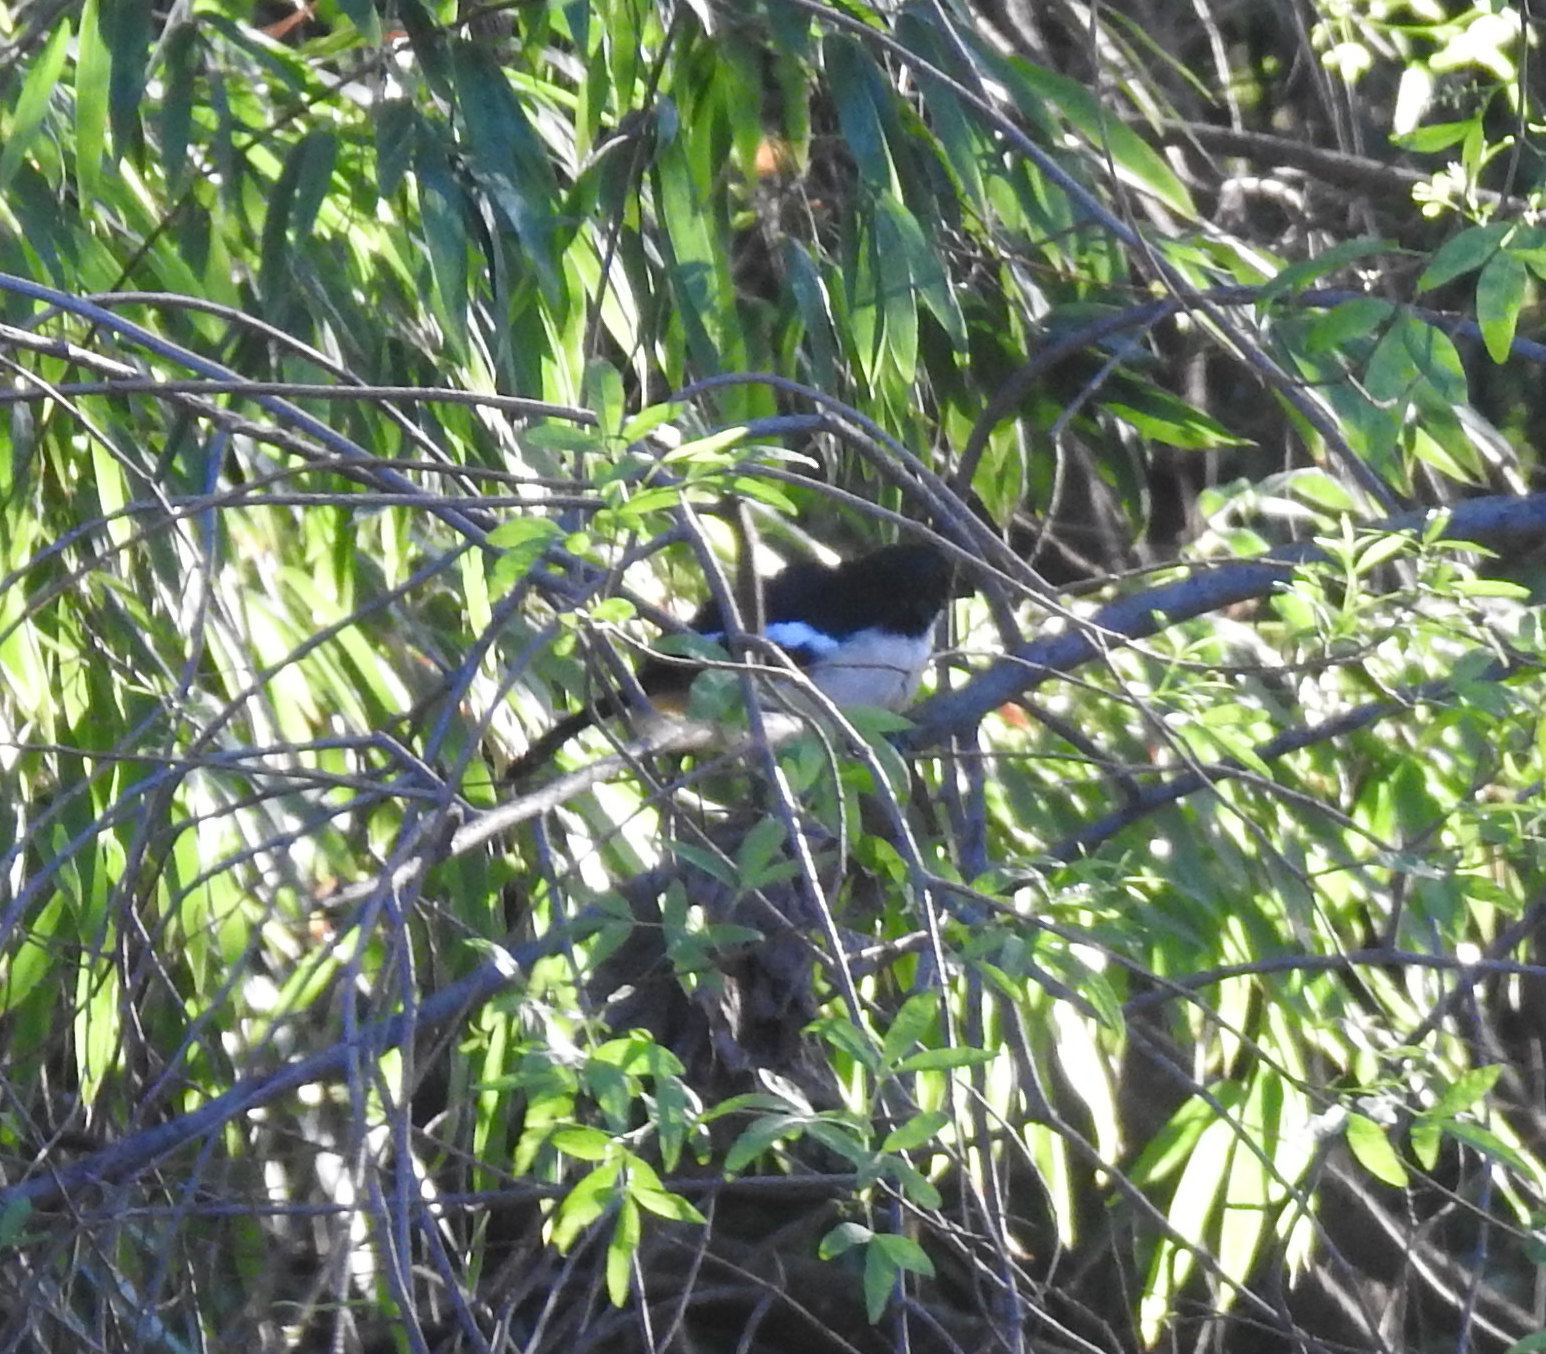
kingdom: Animalia
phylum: Chordata
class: Aves
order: Passeriformes
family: Malaconotidae
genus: Laniarius
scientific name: Laniarius ferrugineus
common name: Southern boubou
